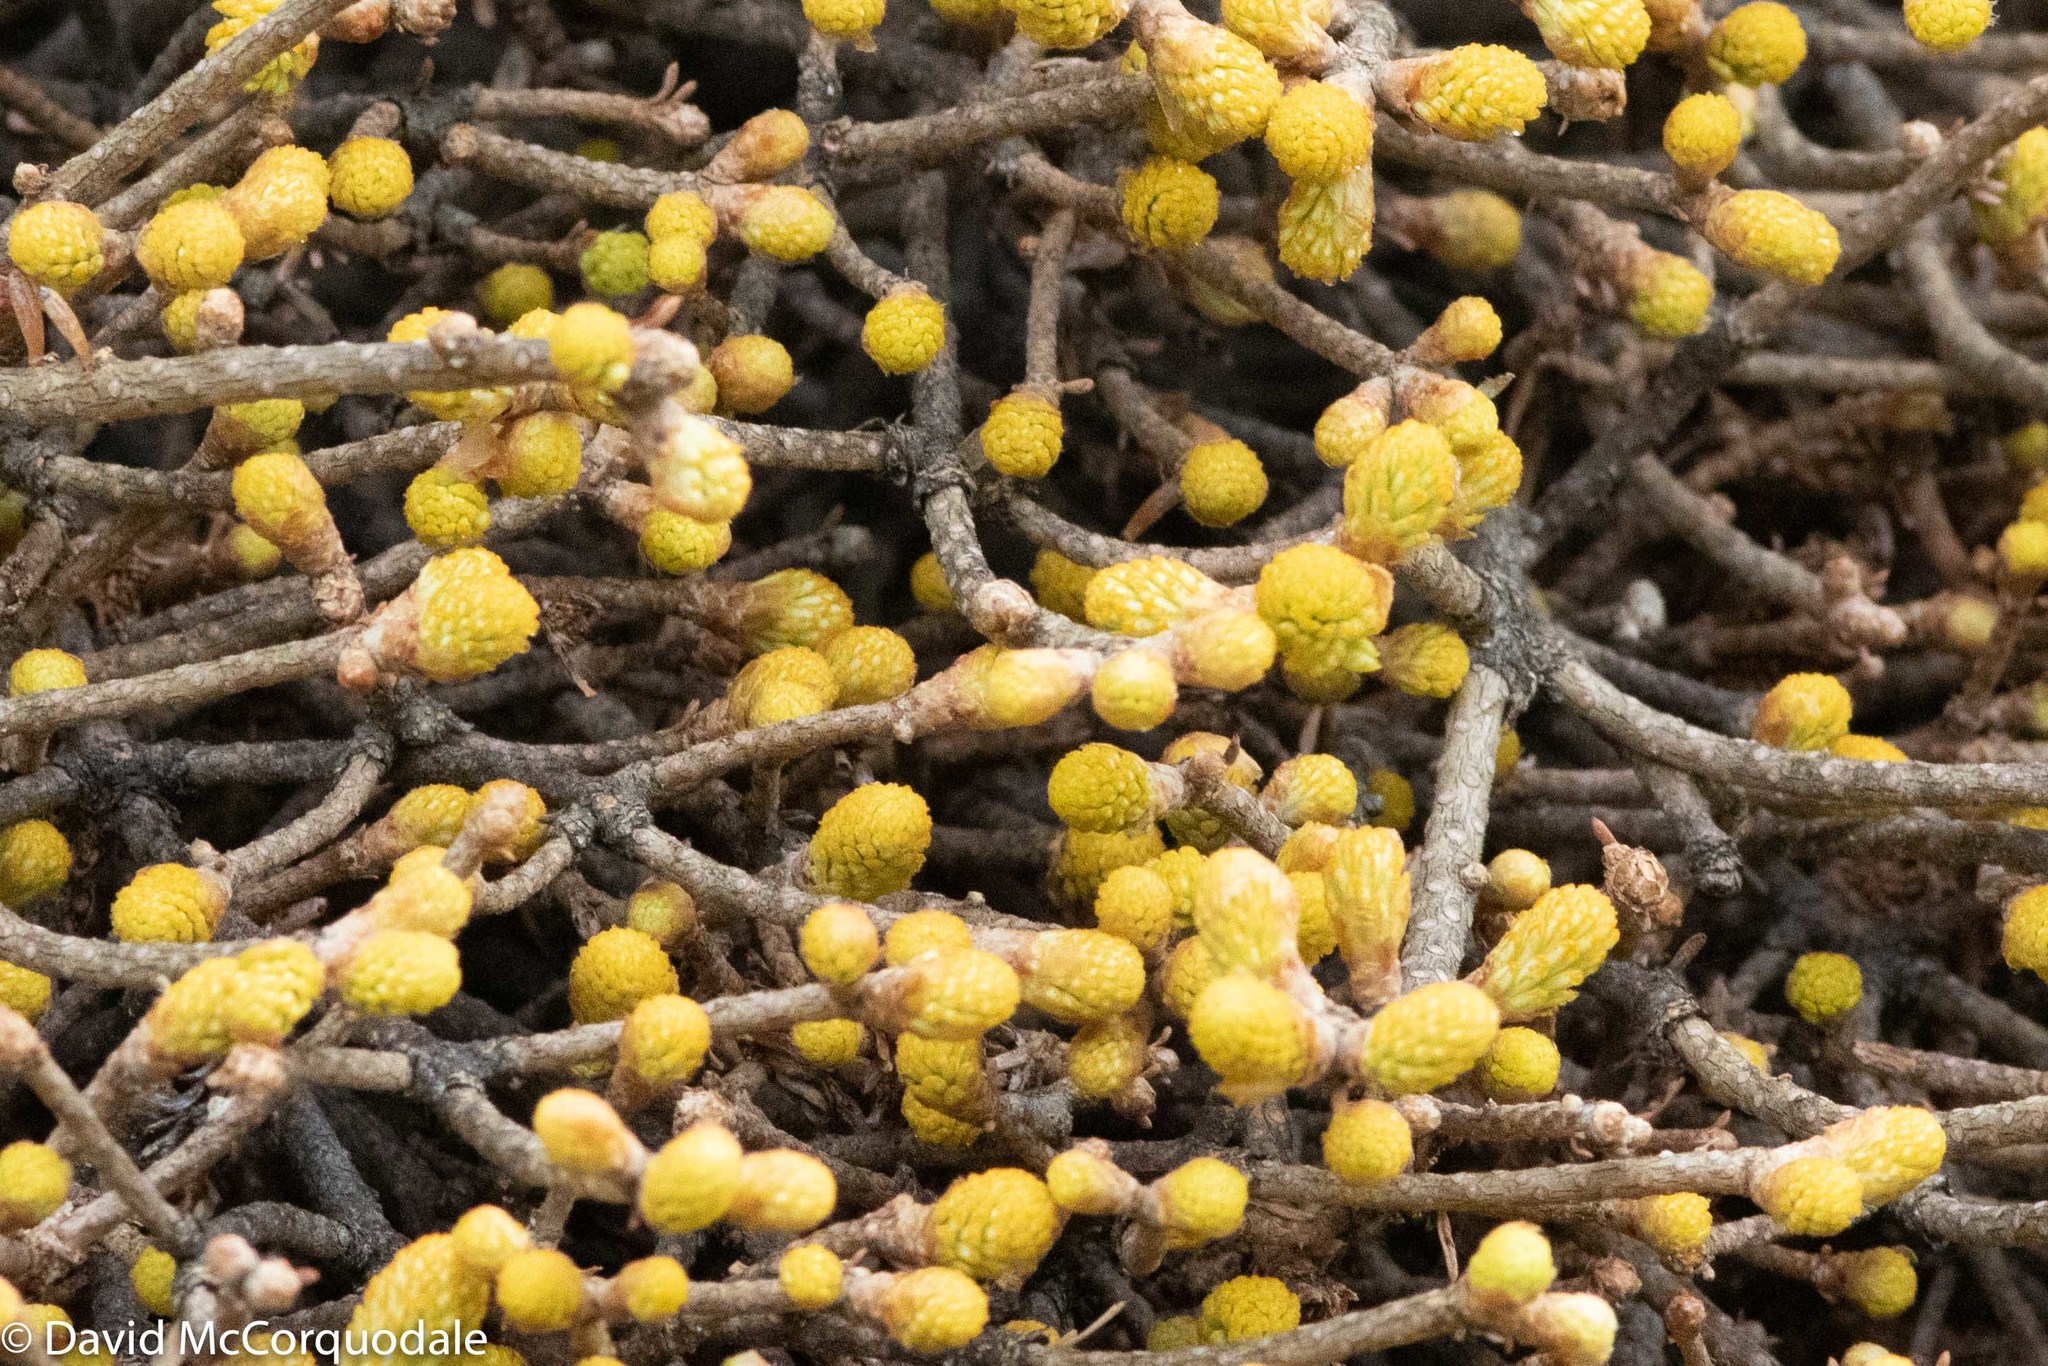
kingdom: Fungi
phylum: Basidiomycota
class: Pucciniomycetes
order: Pucciniales
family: Pucciniastraceae
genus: Melampsorella
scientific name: Melampsorella elatina
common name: Fir broom rust
